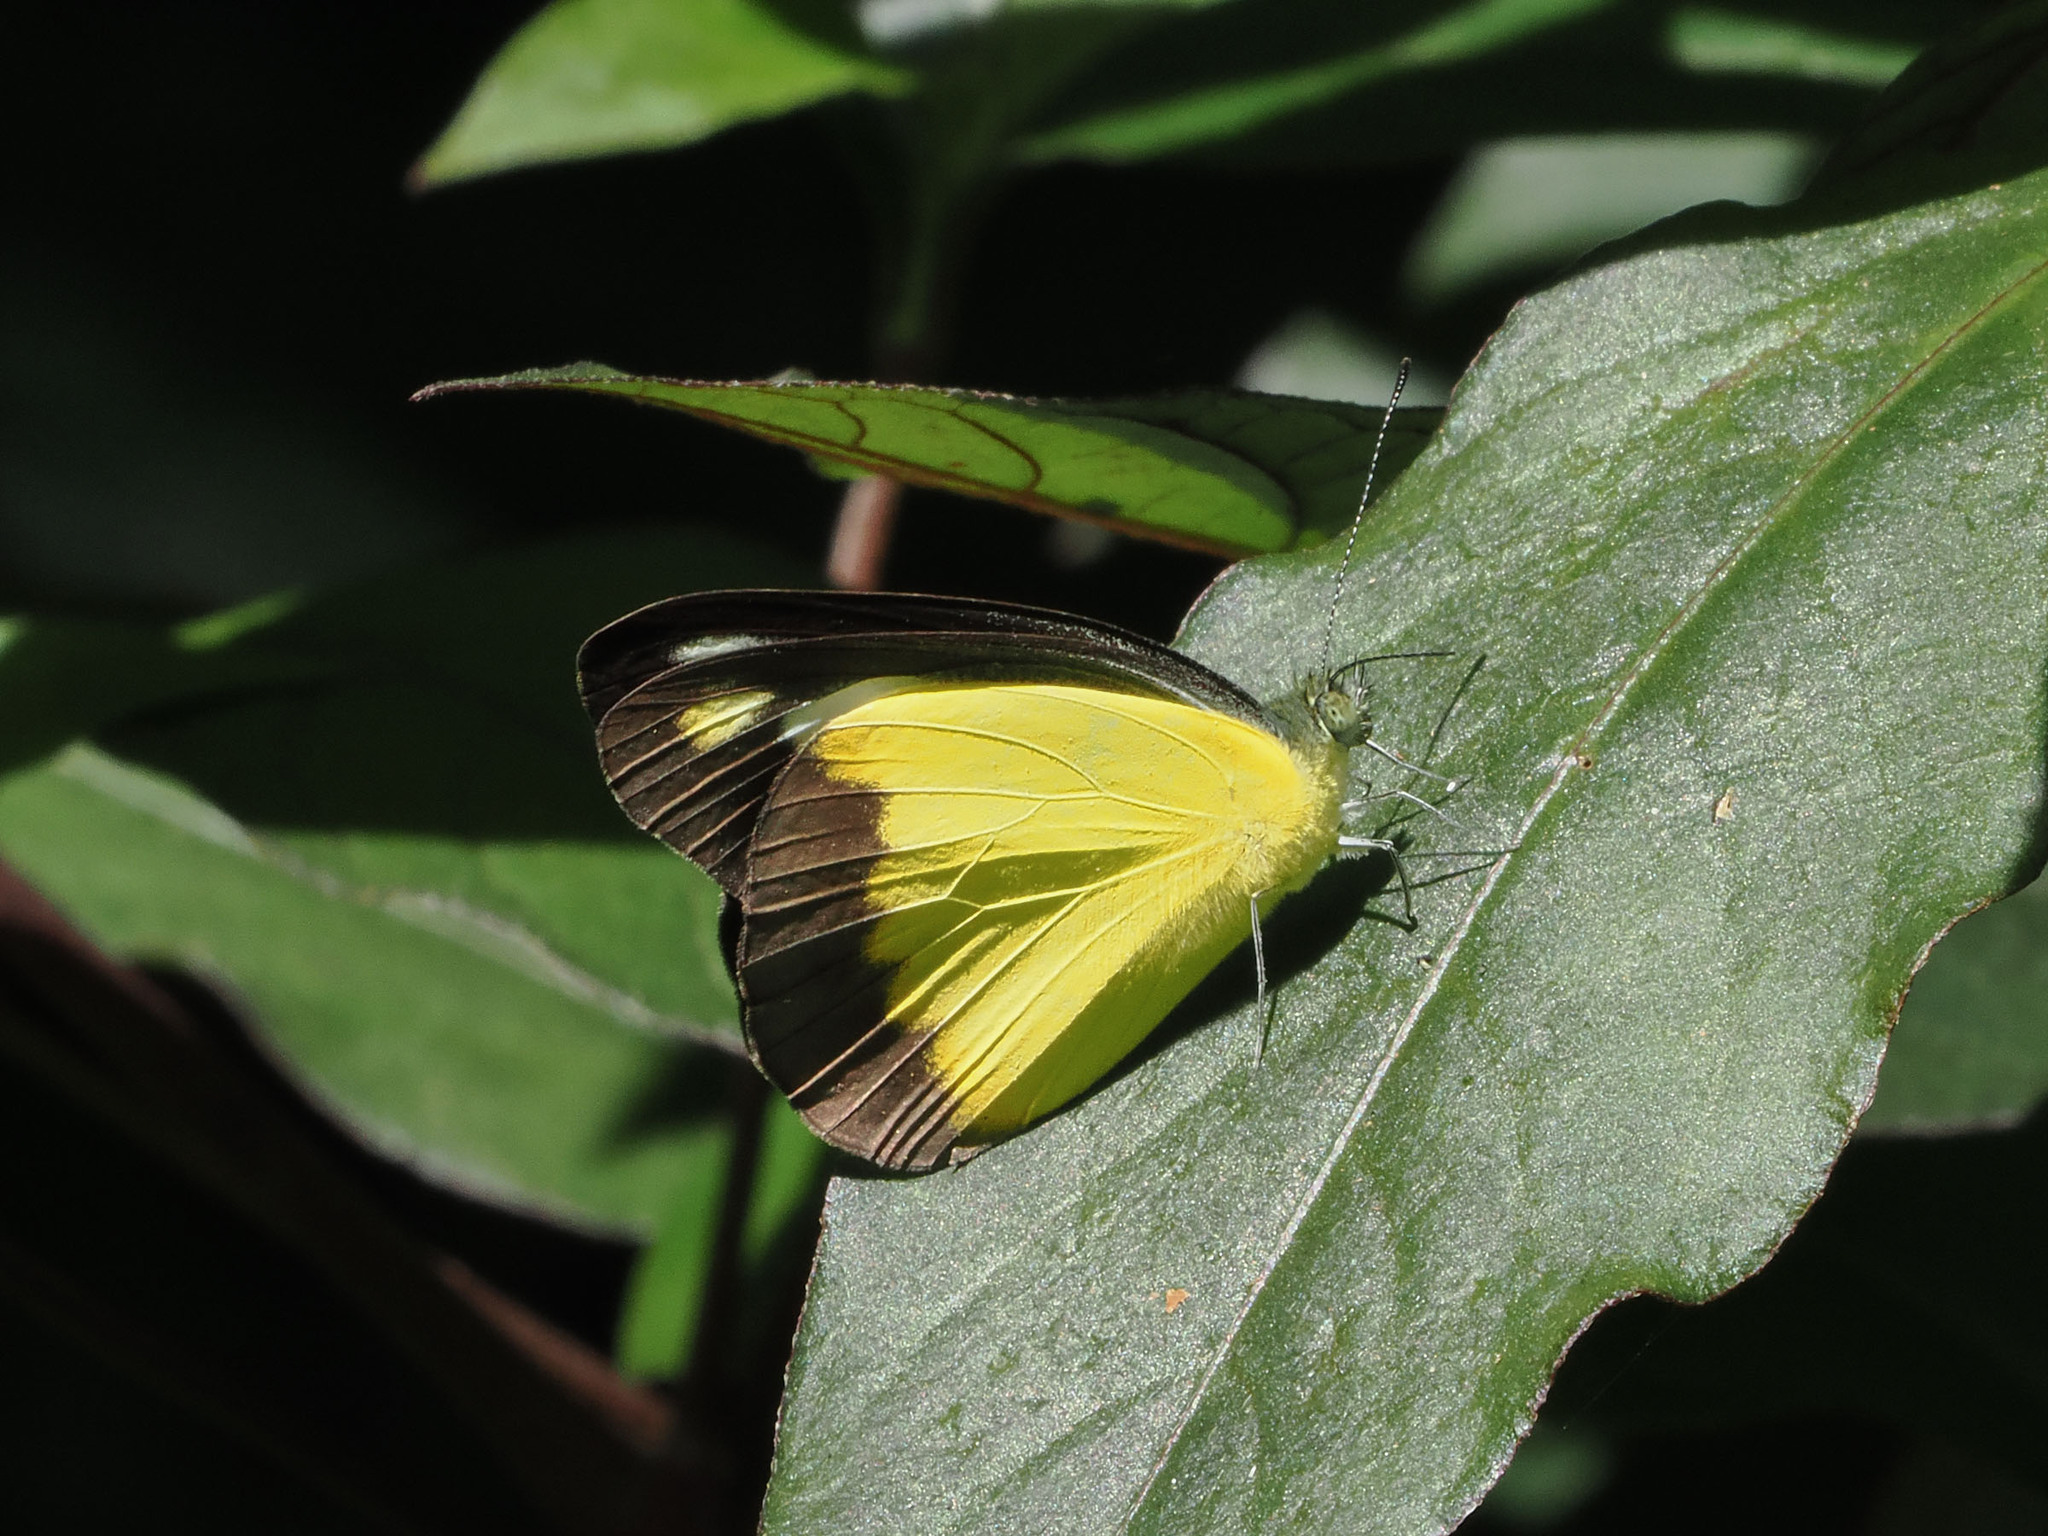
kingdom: Animalia
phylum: Arthropoda
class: Insecta
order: Lepidoptera
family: Pieridae
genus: Appias
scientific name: Appias nephele
